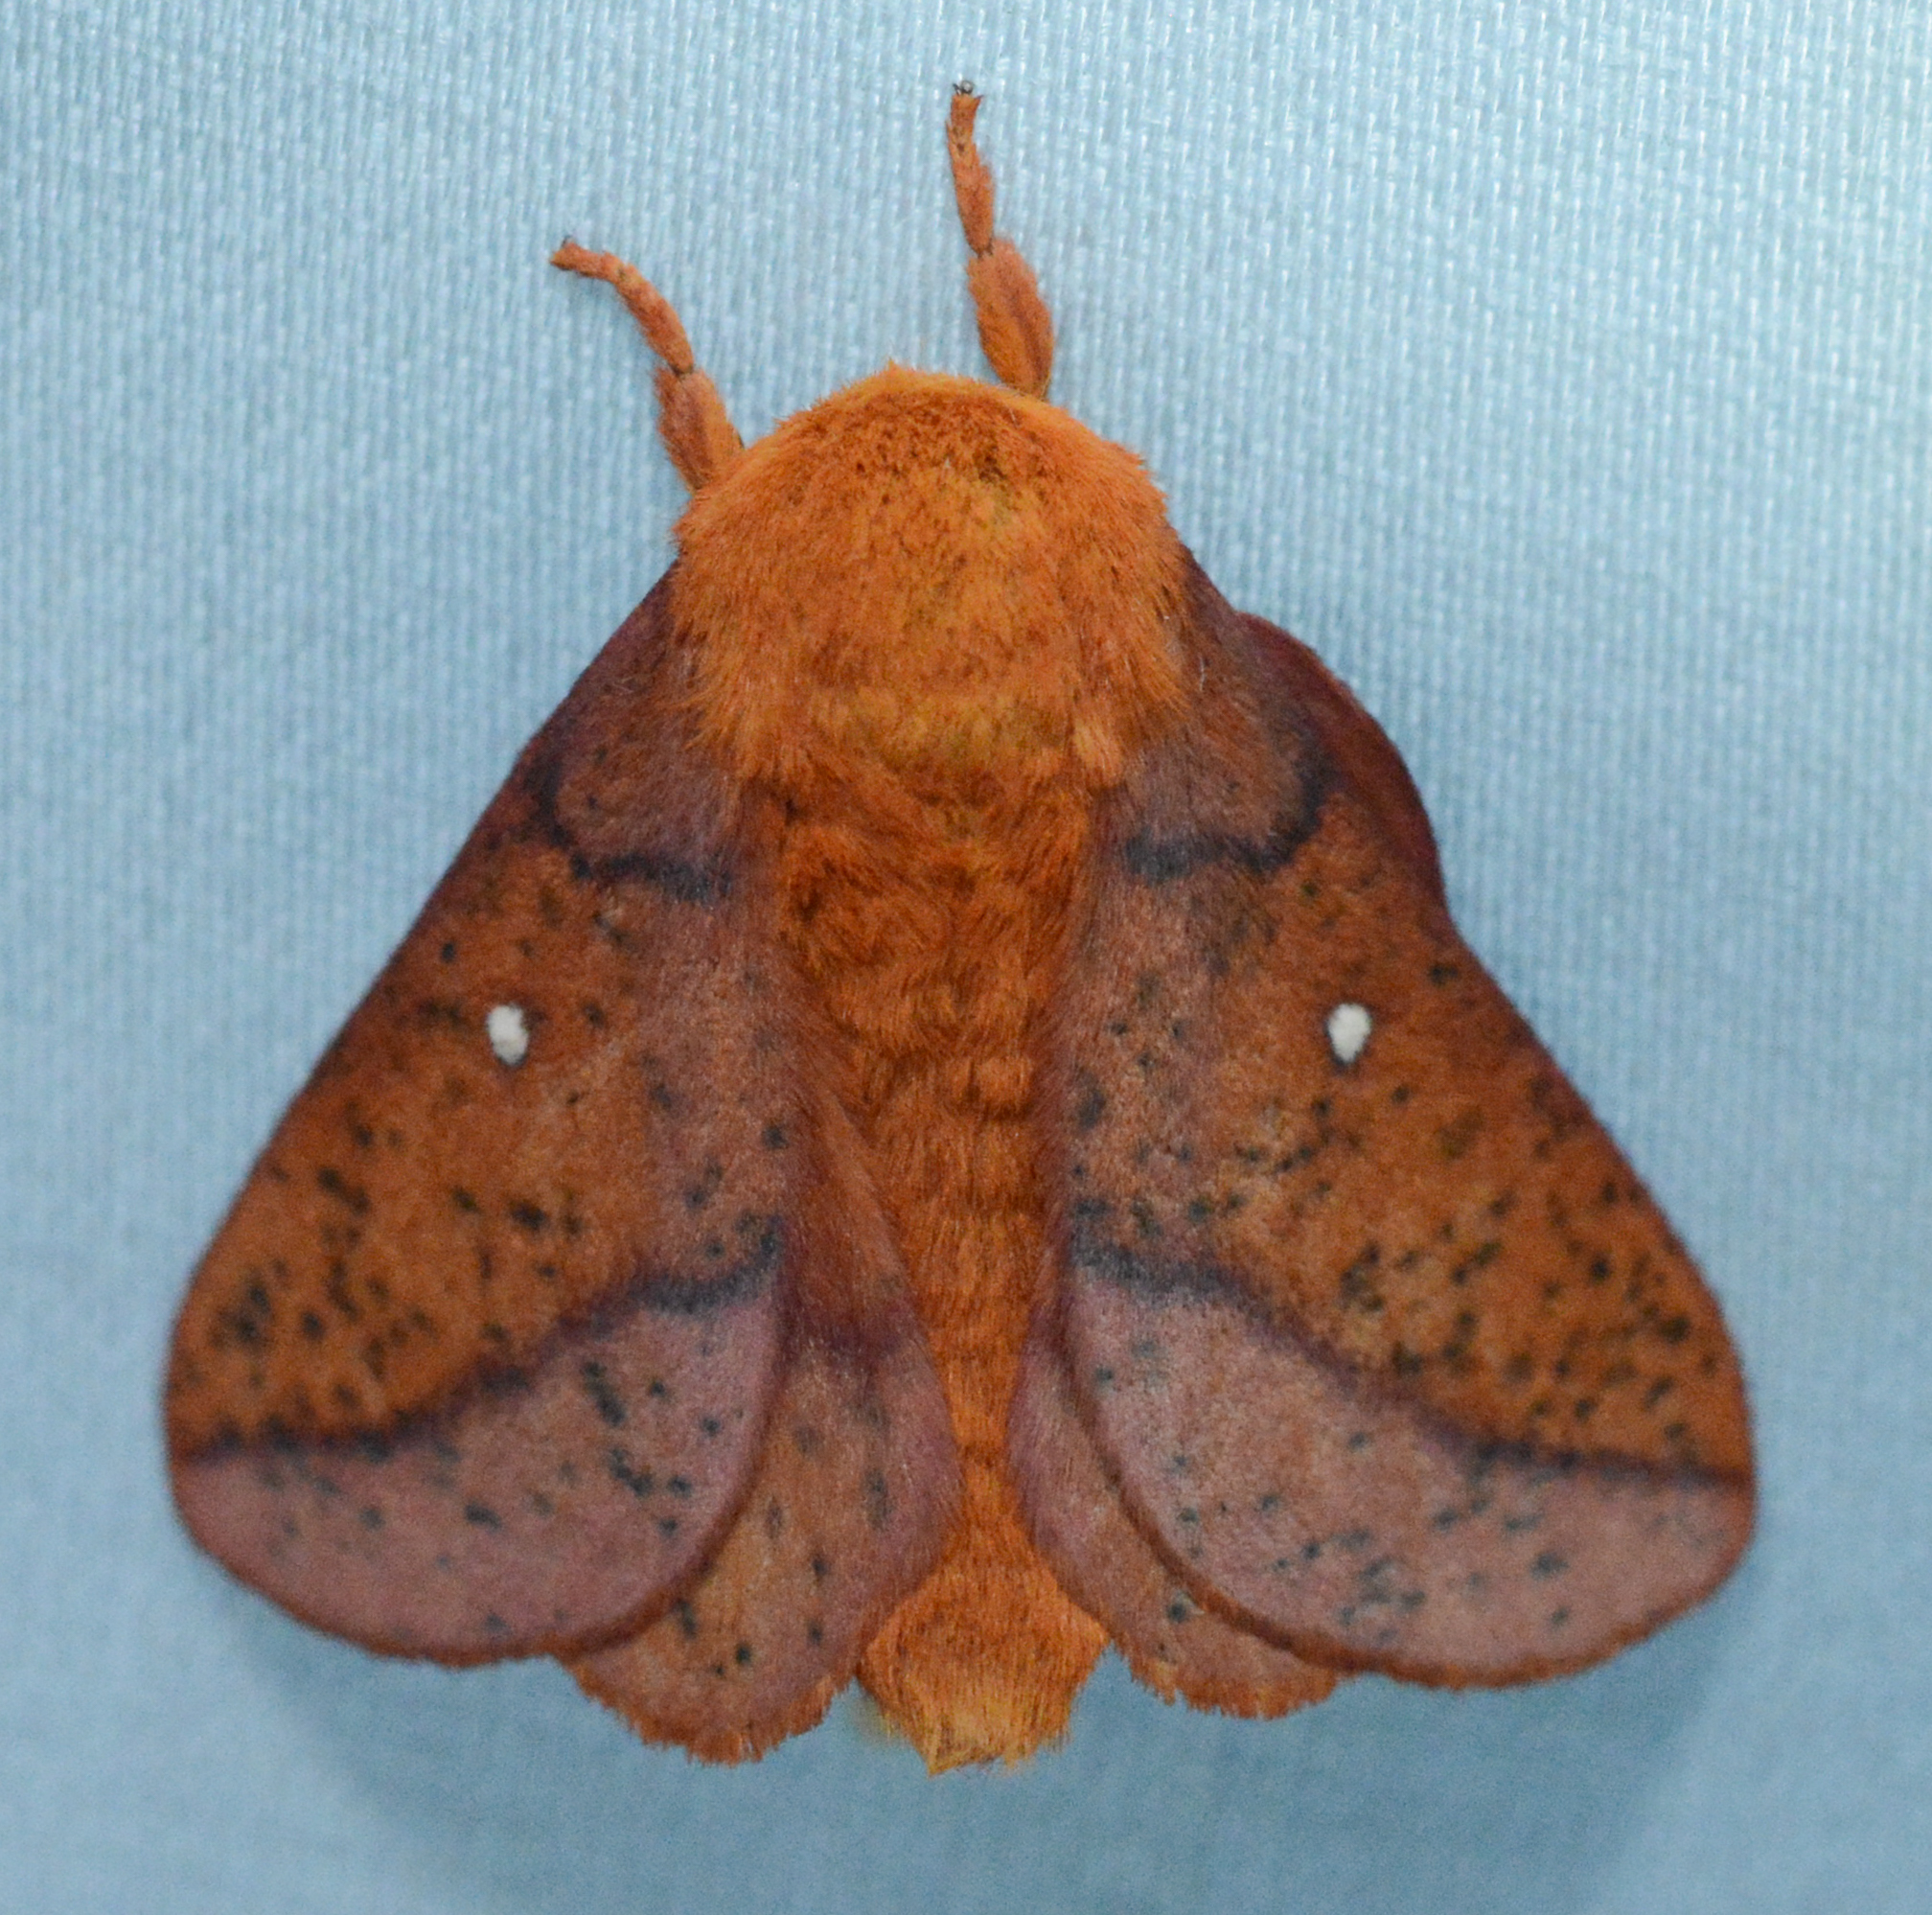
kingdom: Animalia
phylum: Arthropoda
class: Insecta
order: Lepidoptera
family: Saturniidae
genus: Anisota
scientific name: Anisota stigma
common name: Spiny oakworm moth
